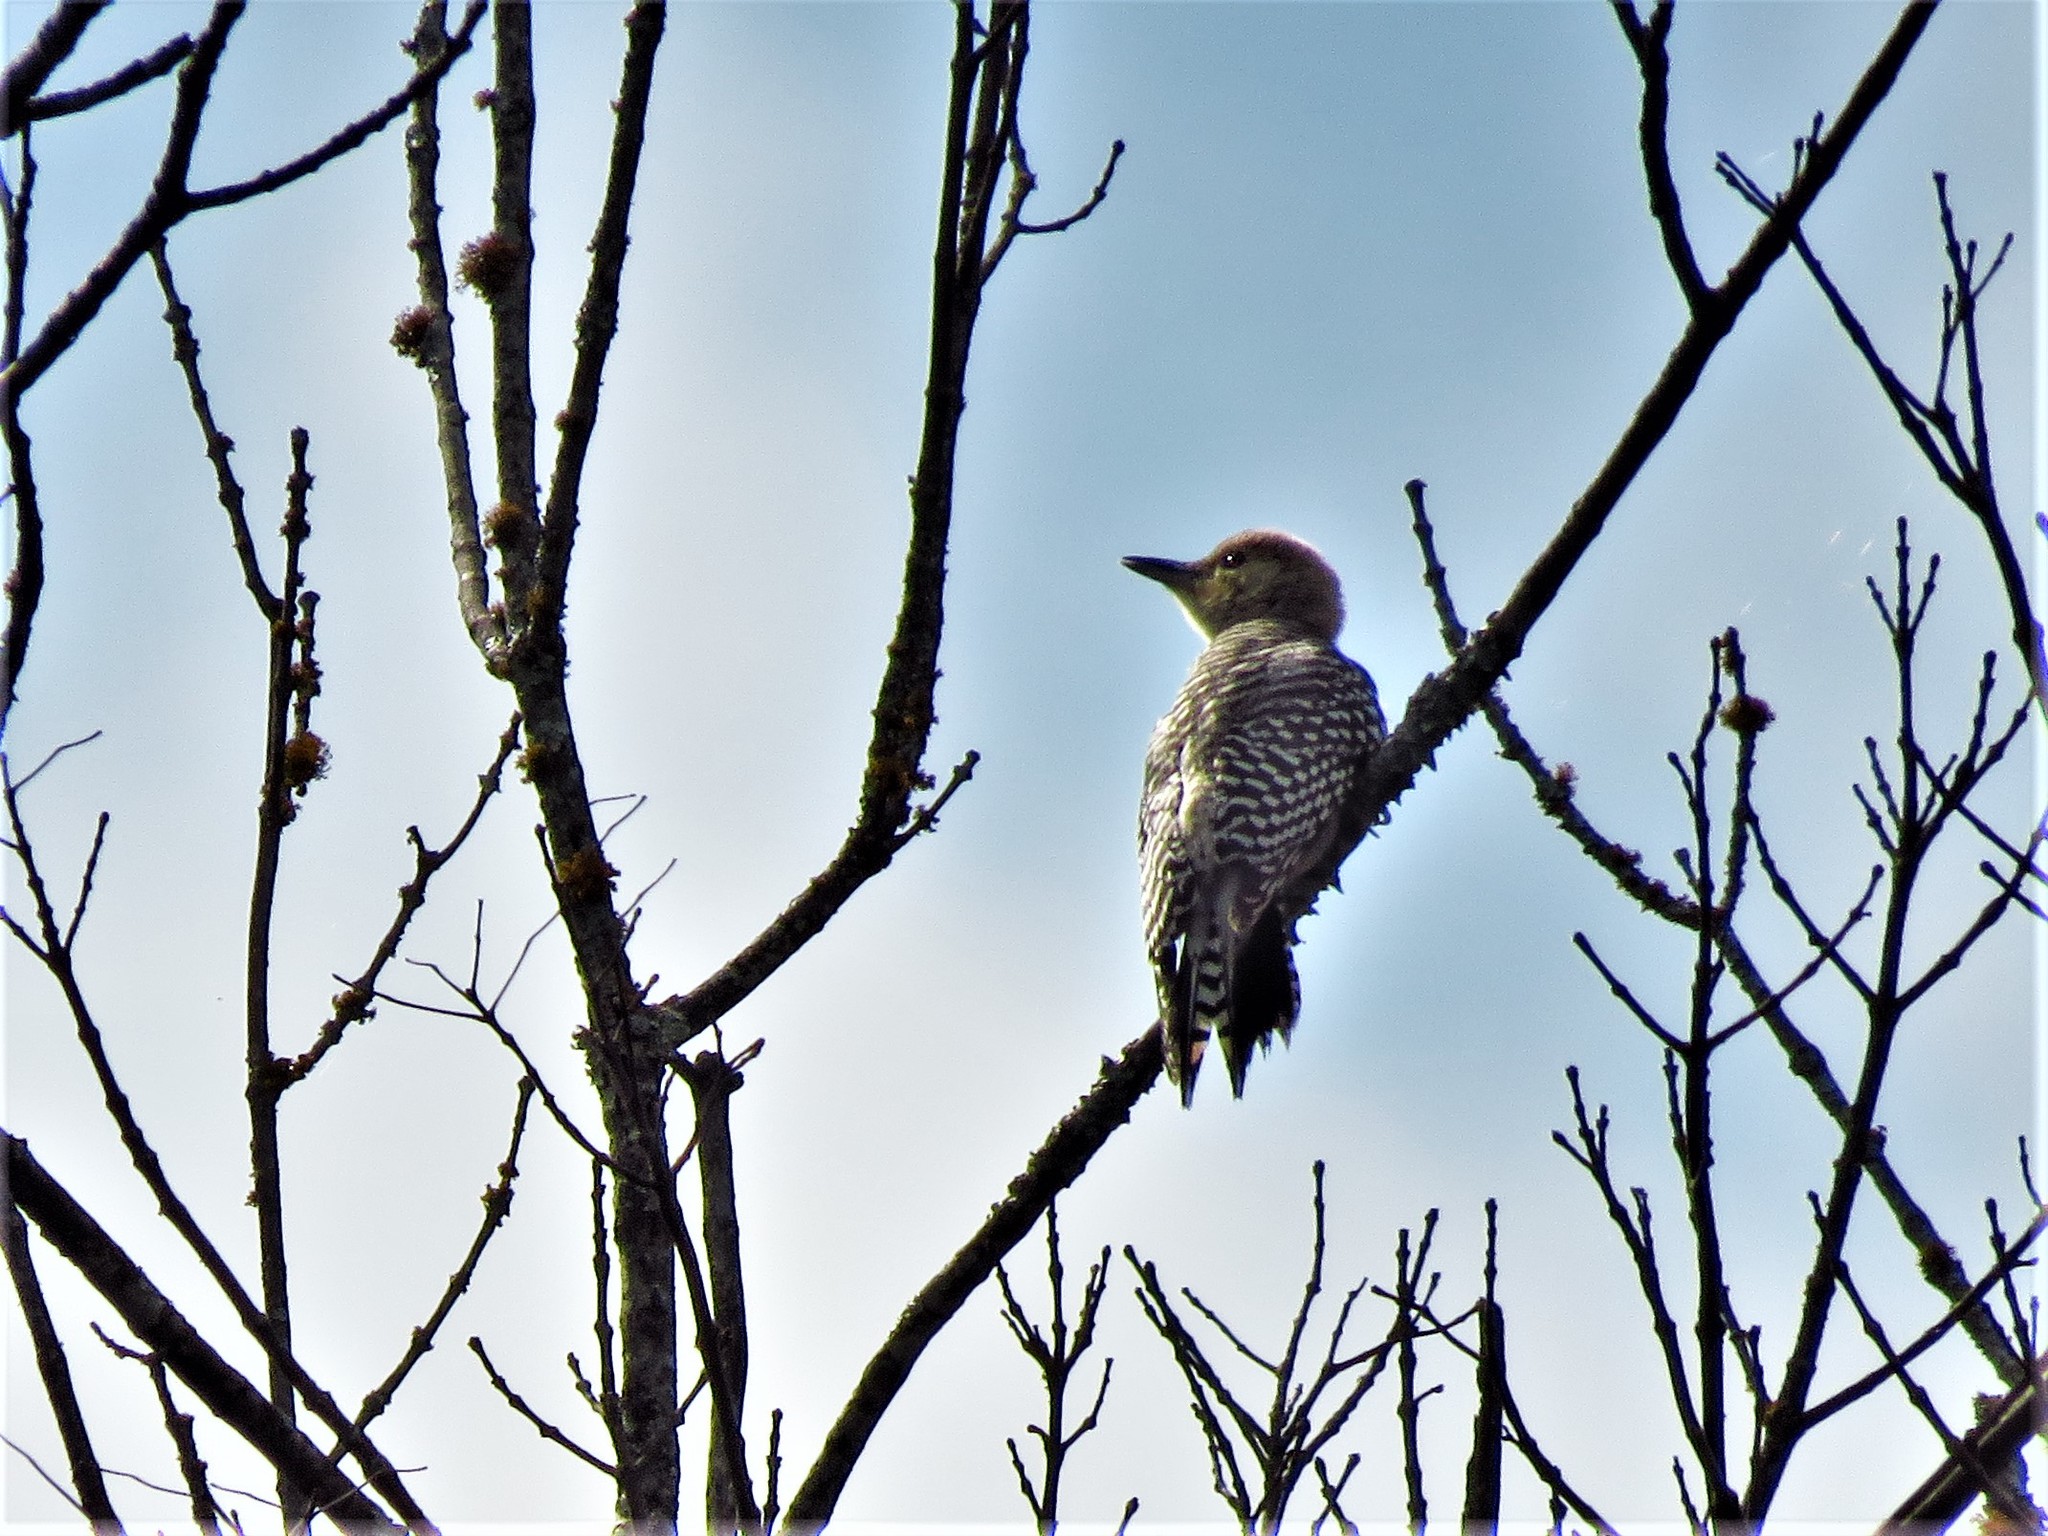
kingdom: Animalia
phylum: Chordata
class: Aves
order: Piciformes
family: Picidae
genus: Melanerpes
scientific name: Melanerpes carolinus
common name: Red-bellied woodpecker
